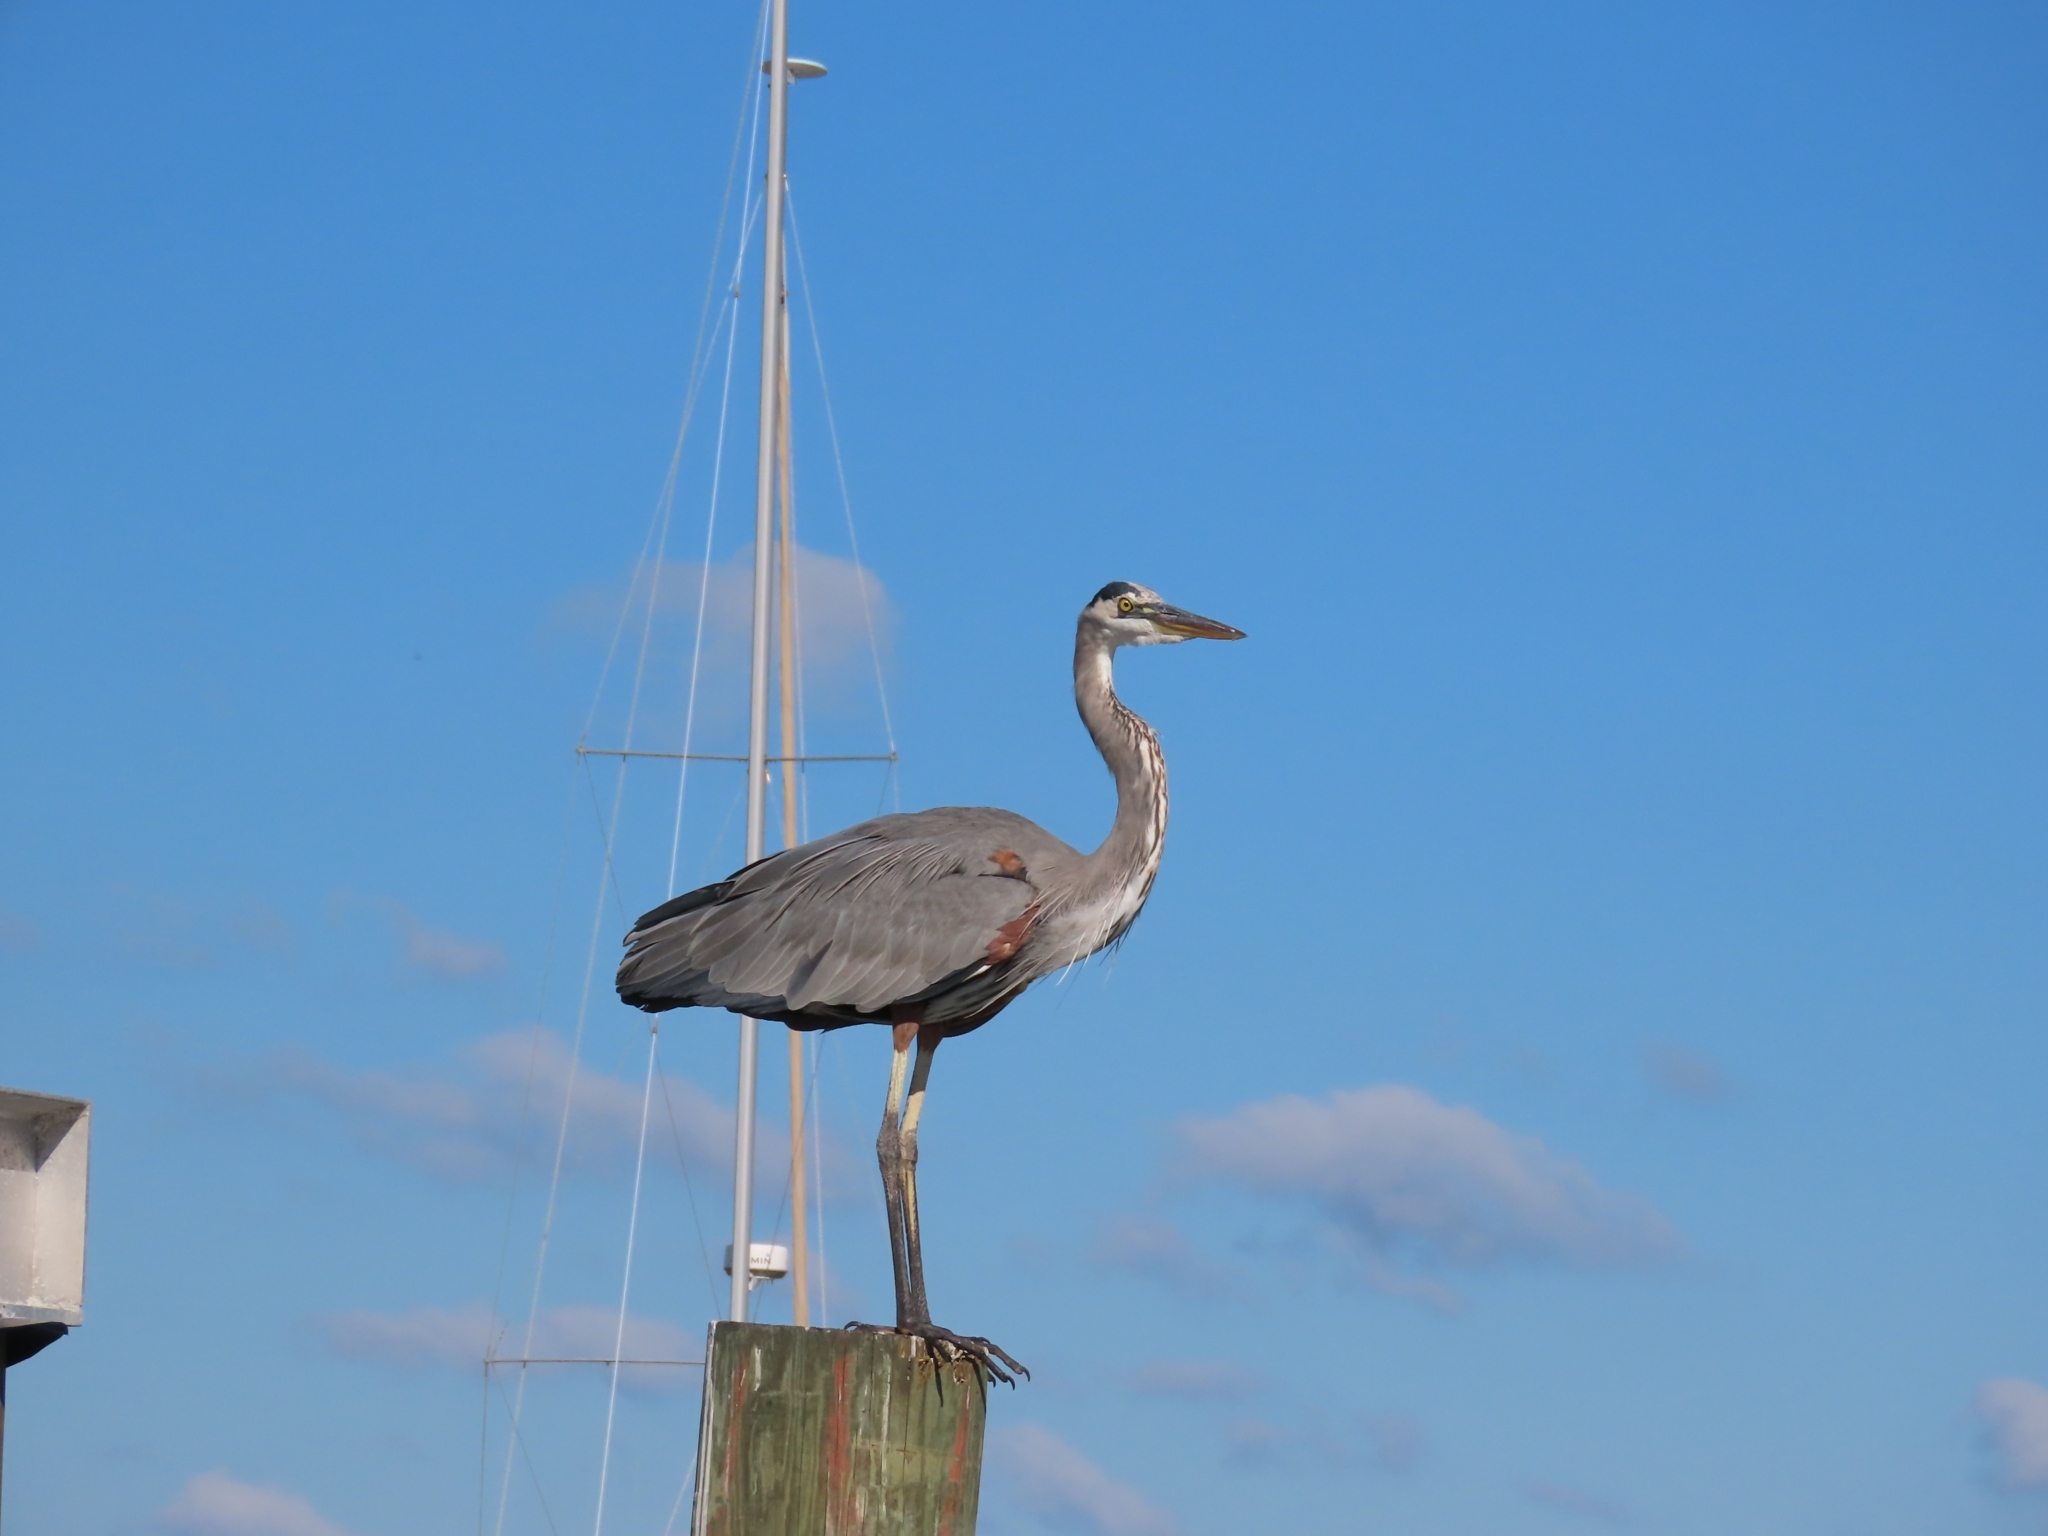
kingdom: Animalia
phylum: Chordata
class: Aves
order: Pelecaniformes
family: Ardeidae
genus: Ardea
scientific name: Ardea herodias
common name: Great blue heron
